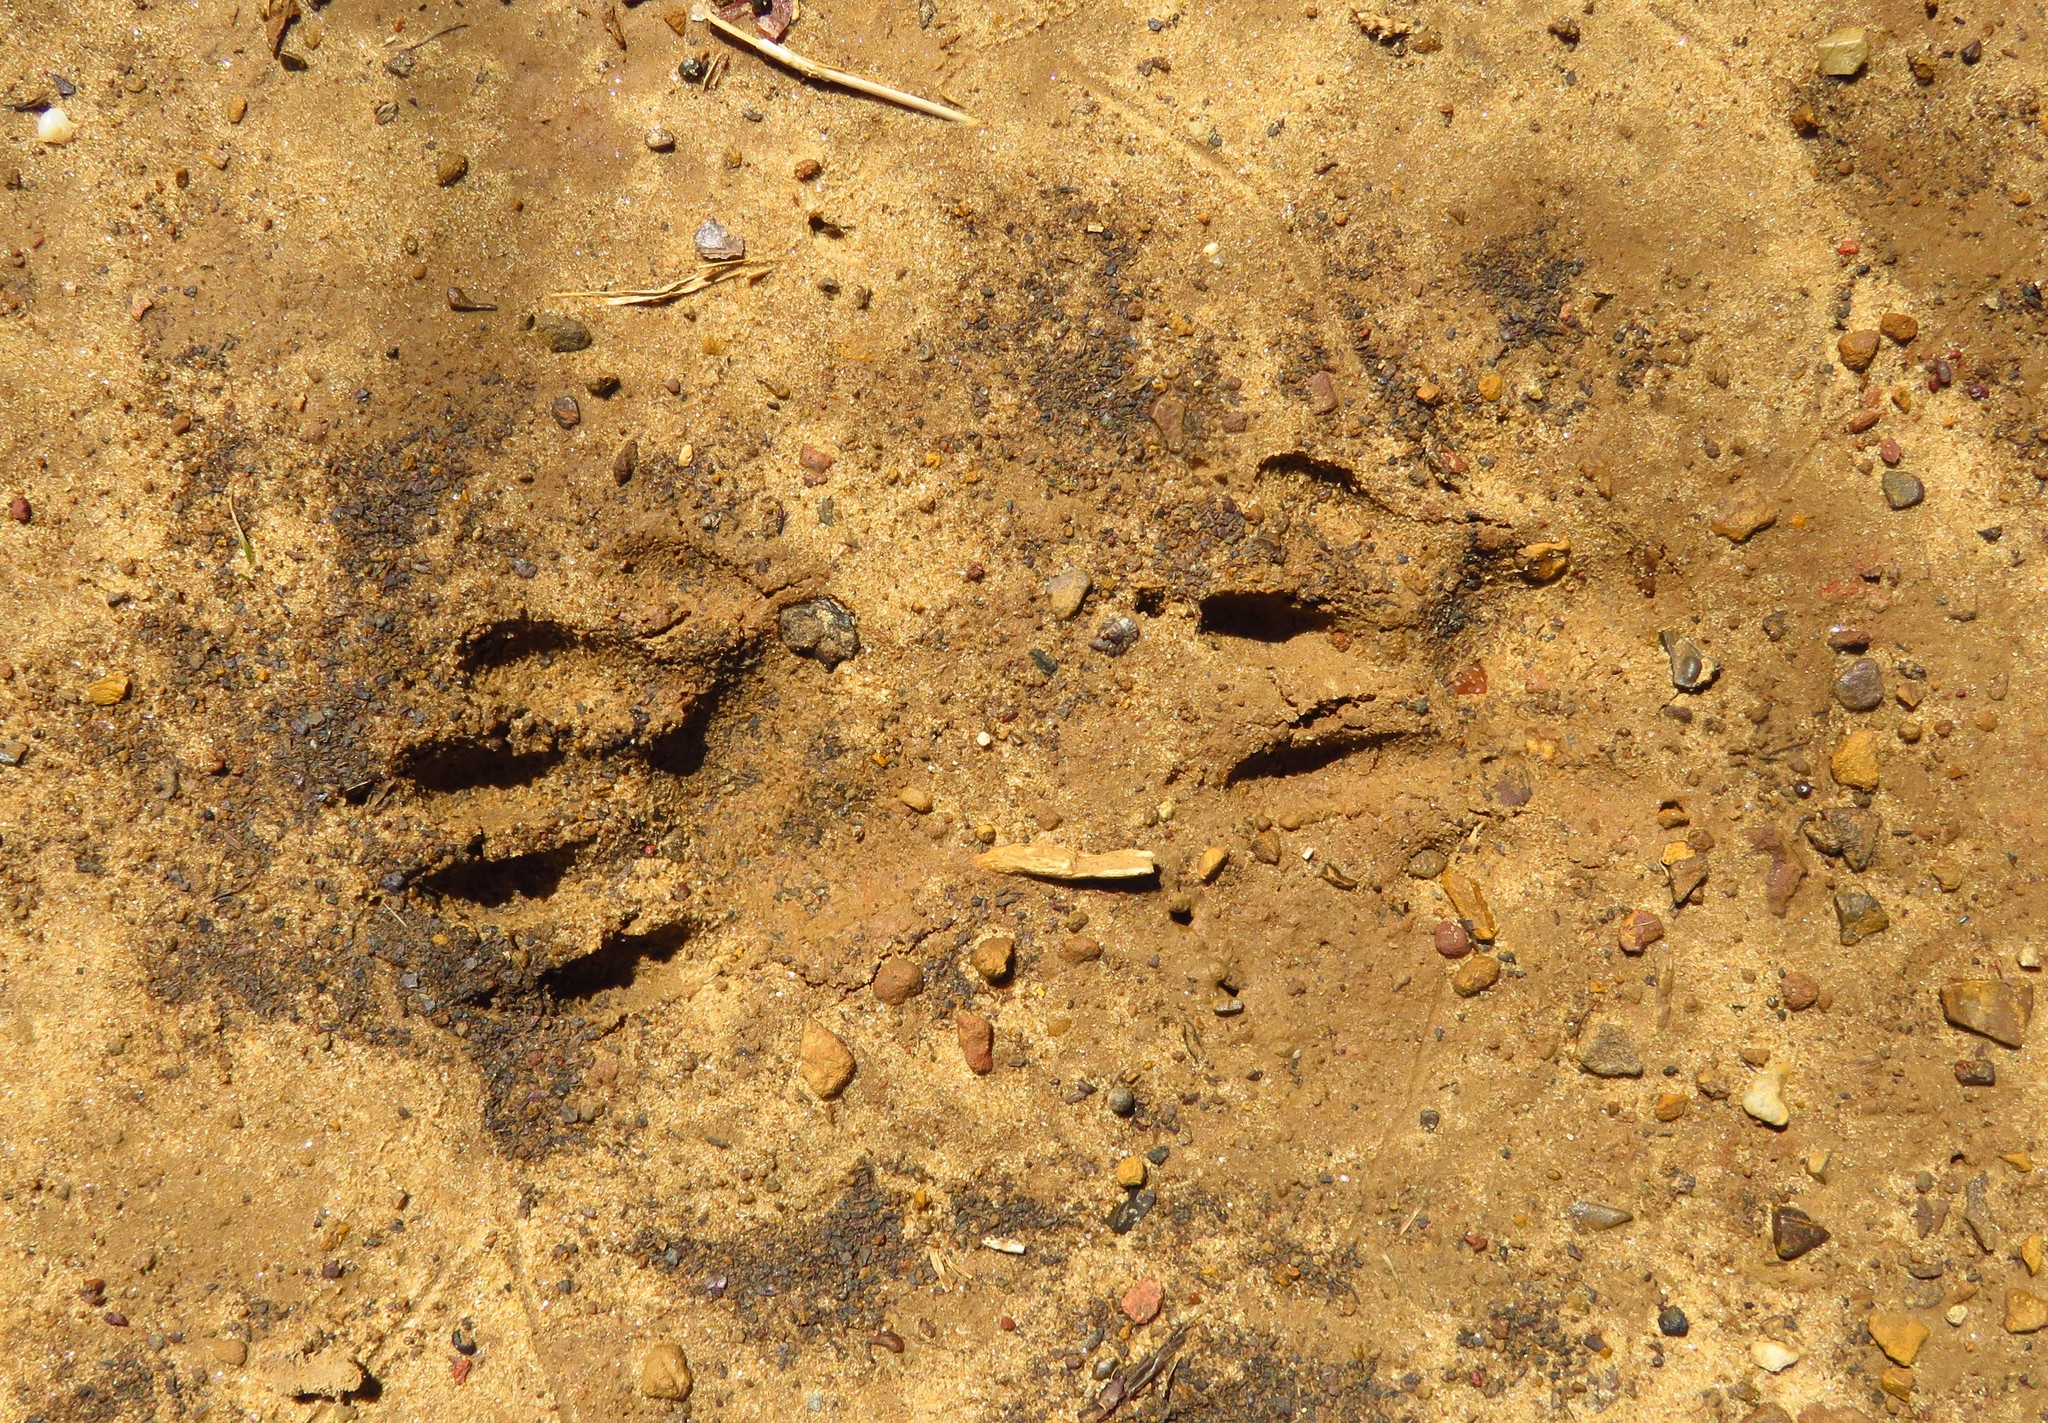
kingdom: Animalia
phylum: Chordata
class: Mammalia
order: Carnivora
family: Procyonidae
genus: Procyon
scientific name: Procyon lotor
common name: Raccoon
